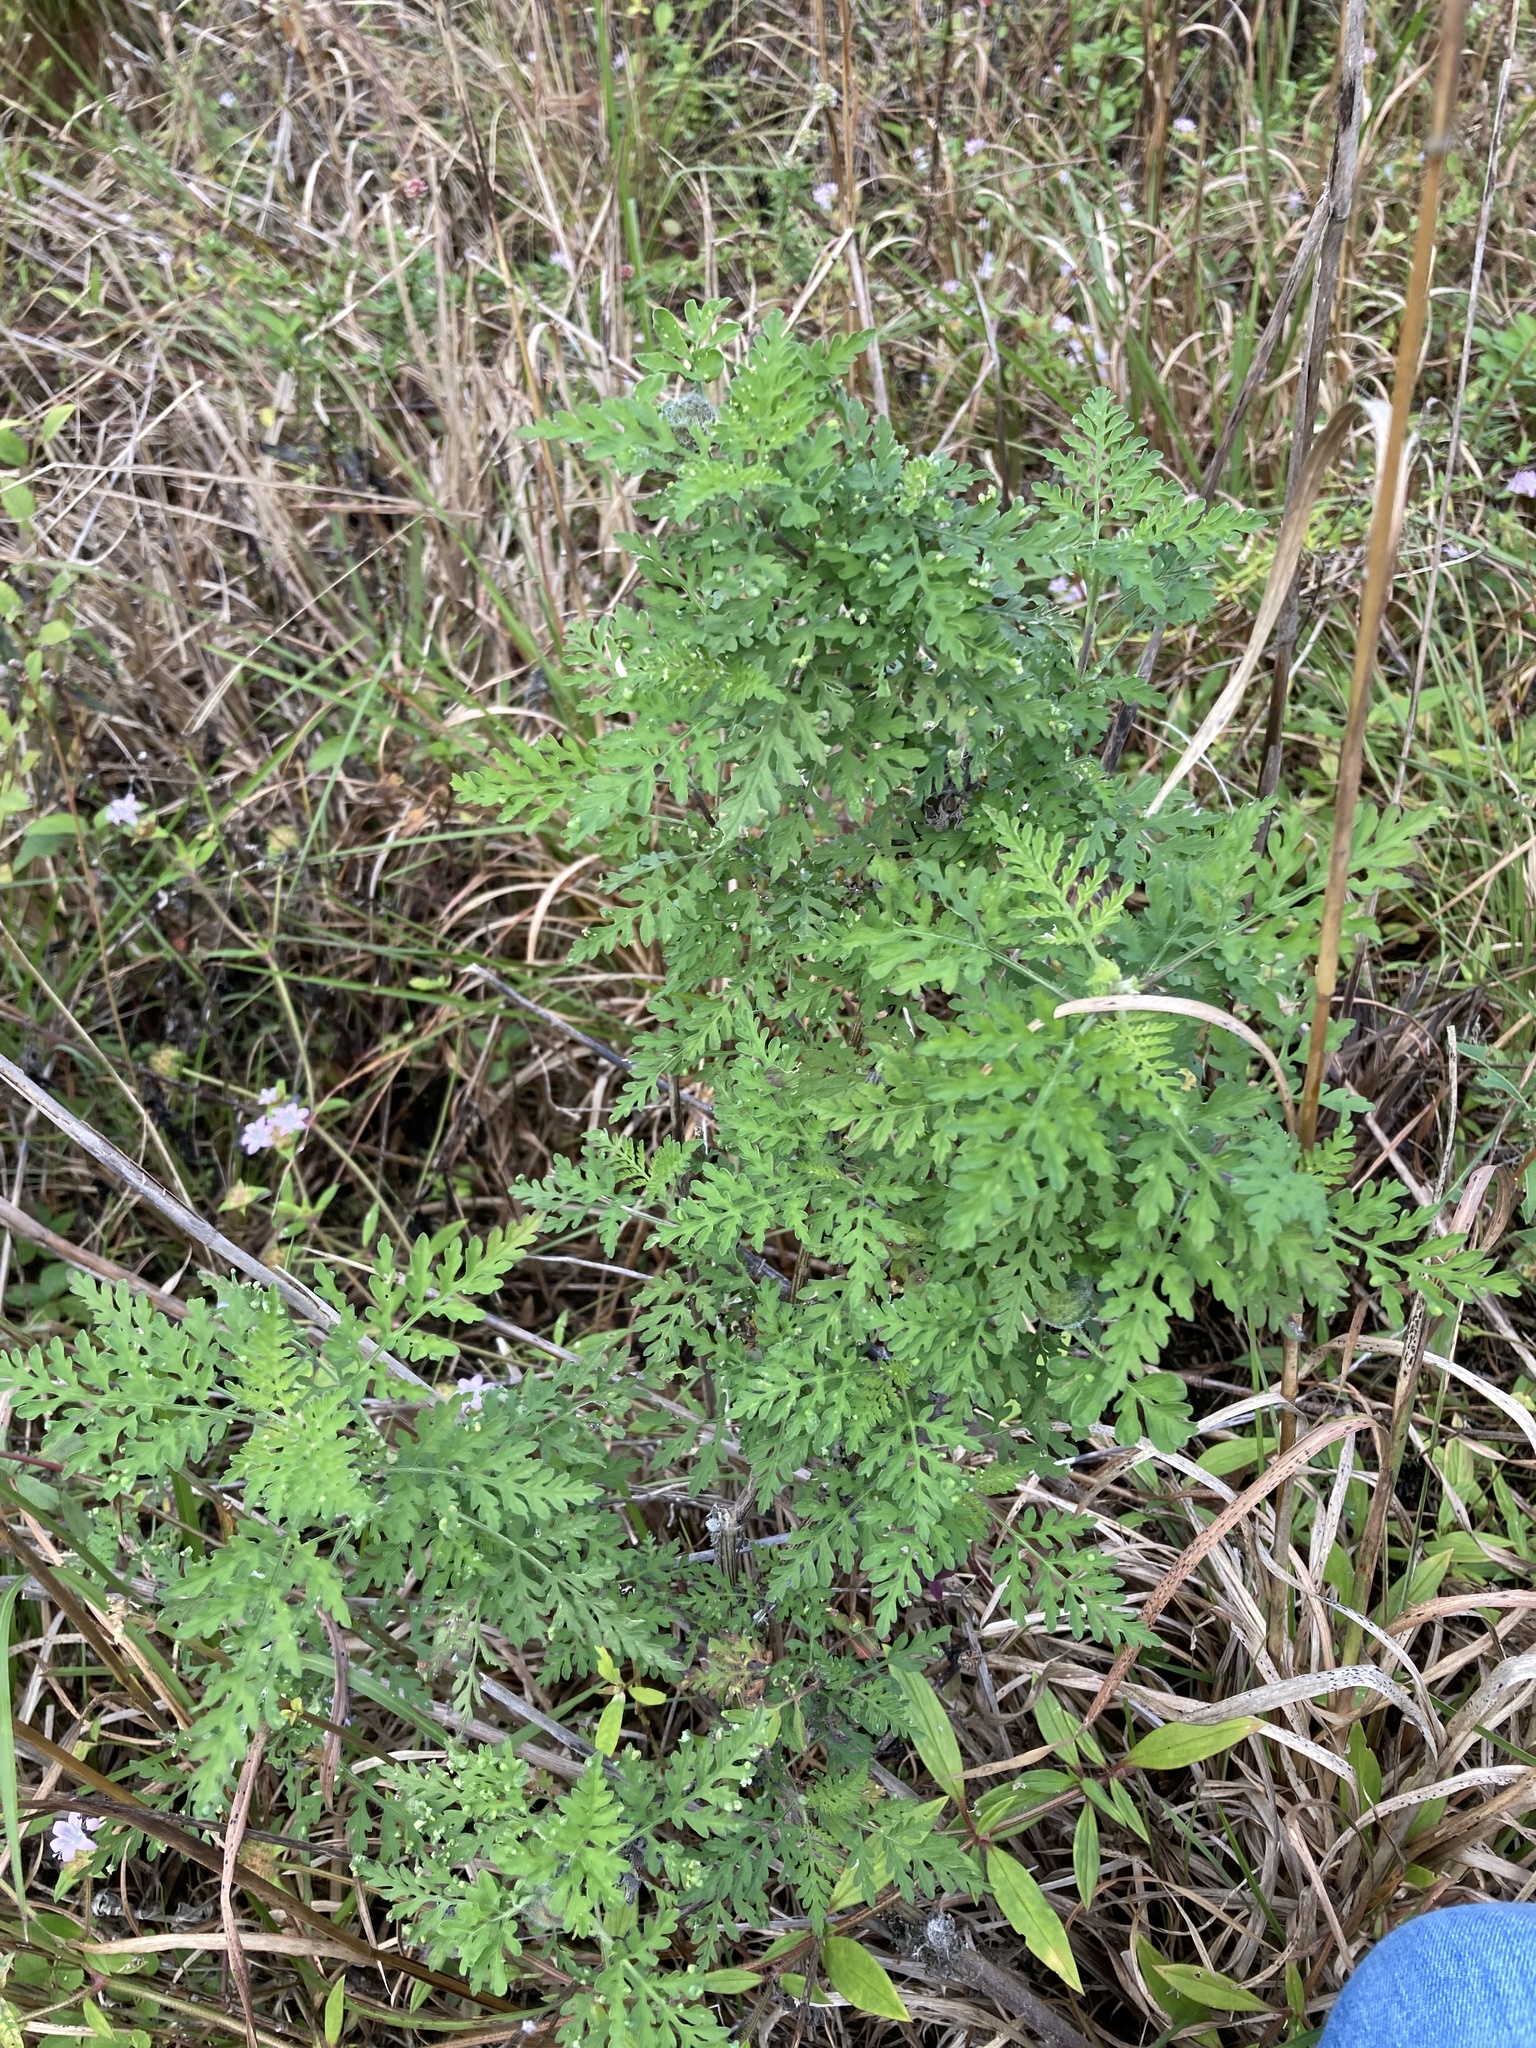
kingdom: Plantae
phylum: Tracheophyta
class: Magnoliopsida
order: Asterales
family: Asteraceae
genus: Ambrosia
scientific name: Ambrosia artemisiifolia
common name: Annual ragweed
